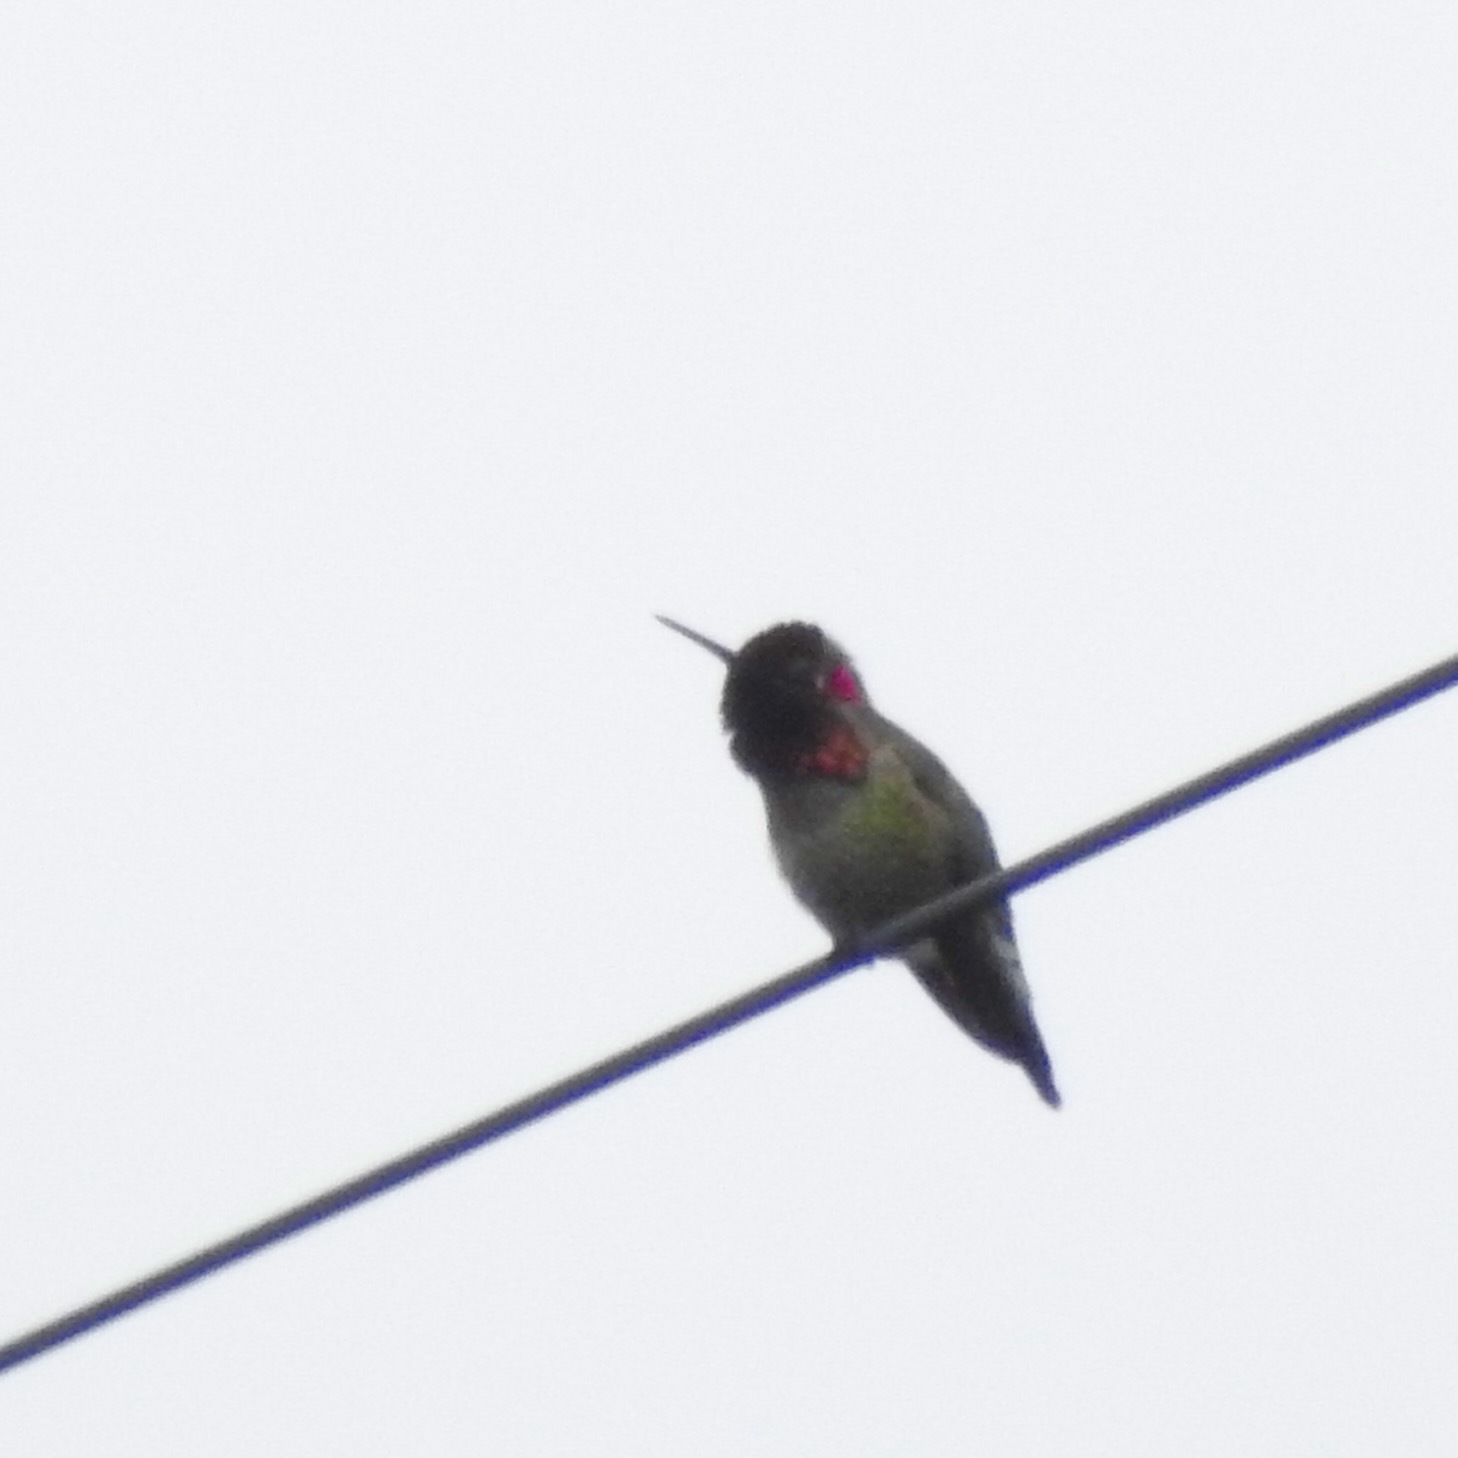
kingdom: Animalia
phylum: Chordata
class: Aves
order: Apodiformes
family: Trochilidae
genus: Calypte
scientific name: Calypte anna
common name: Anna's hummingbird
